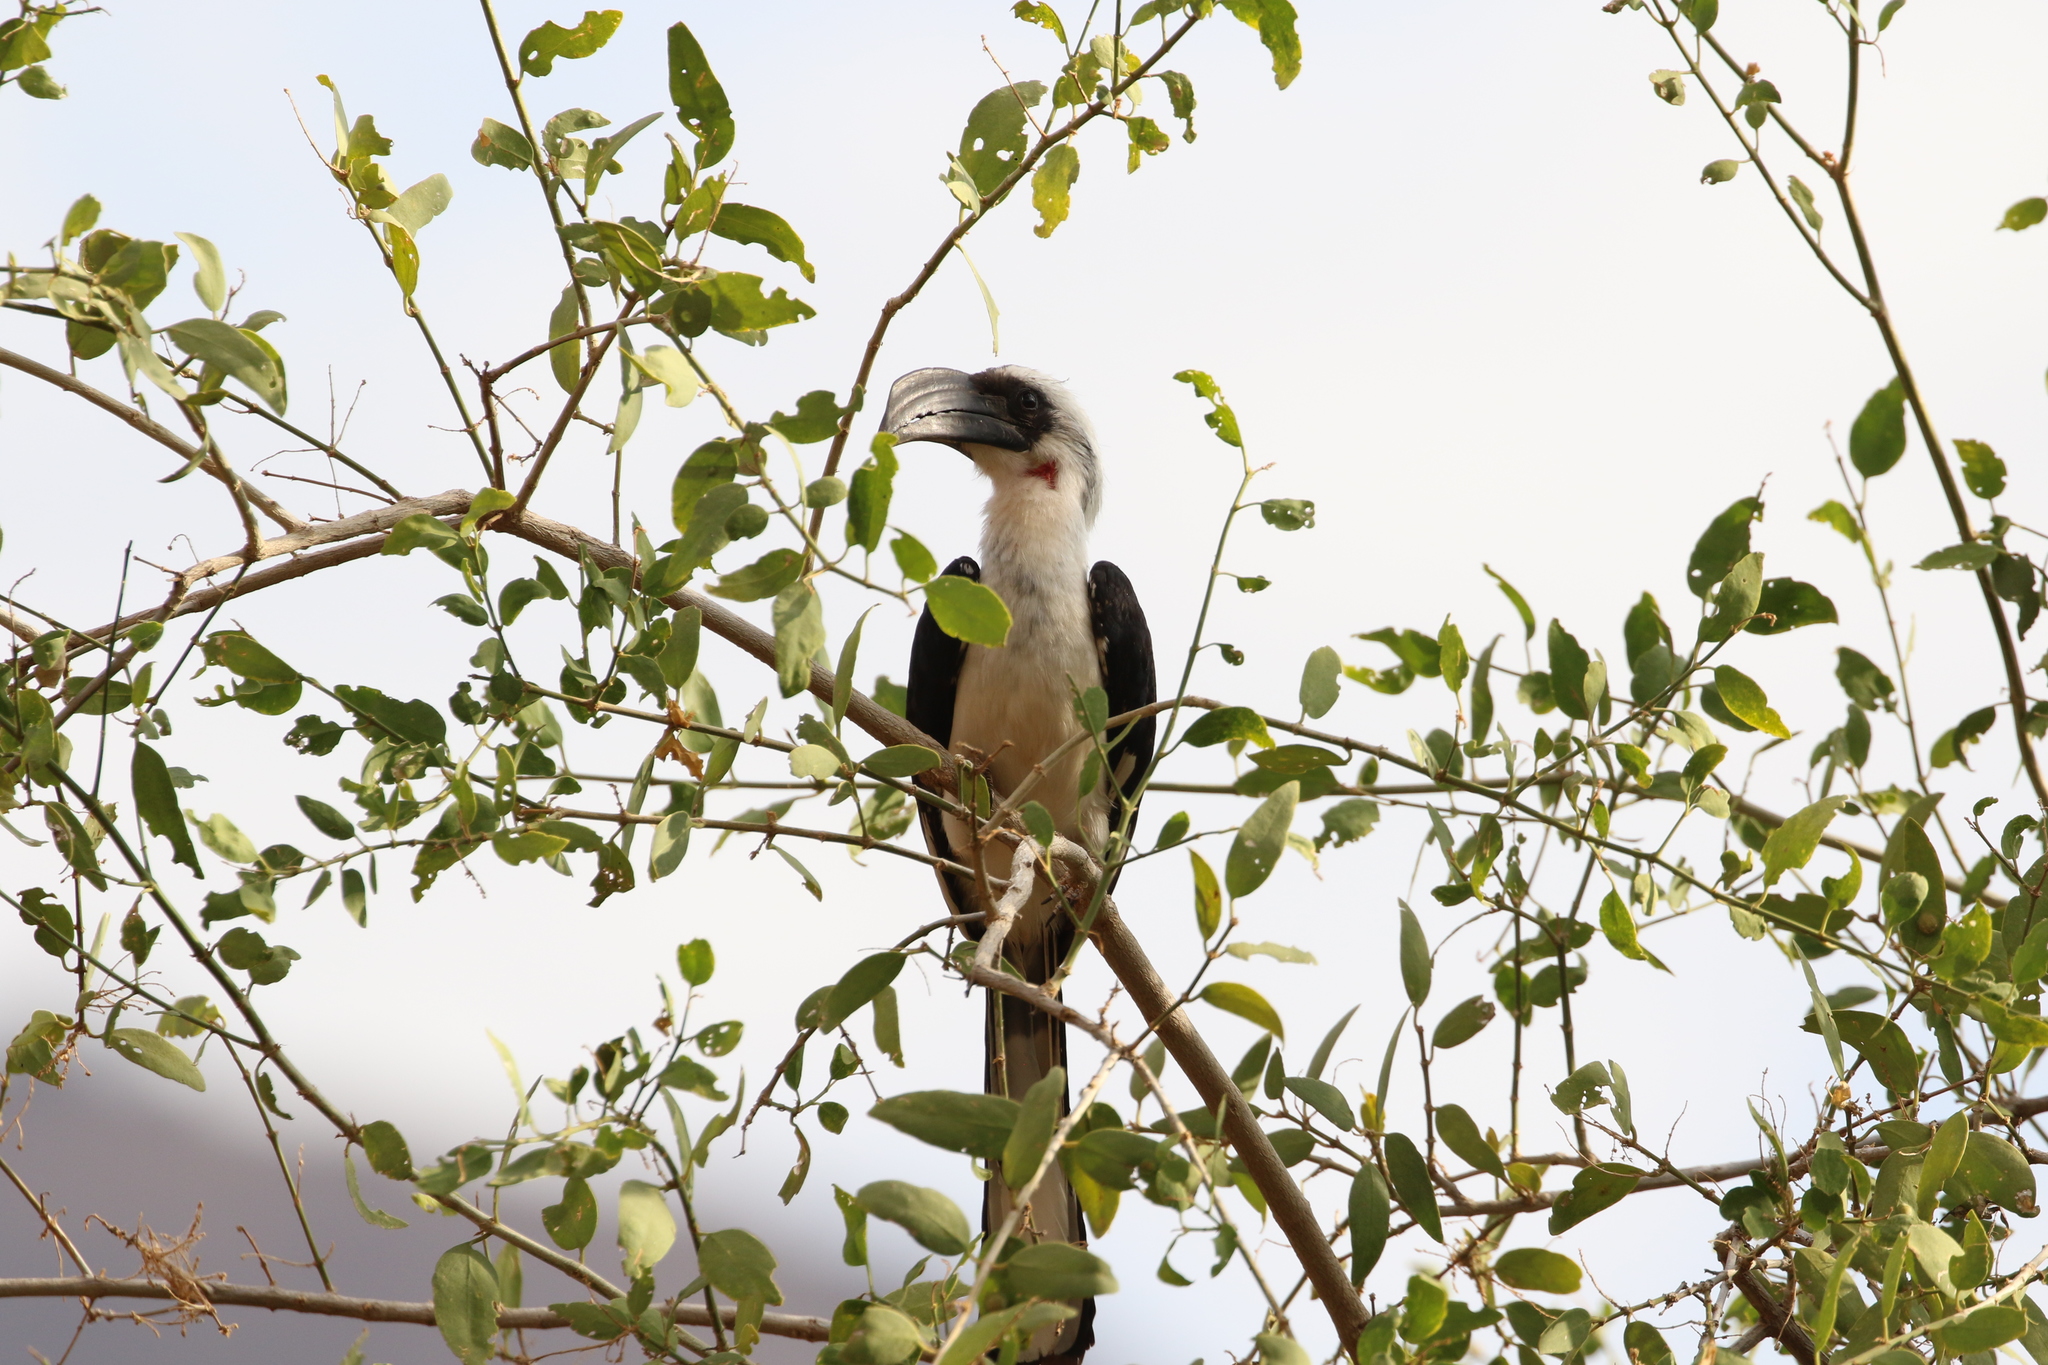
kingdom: Animalia
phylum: Chordata
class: Aves
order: Bucerotiformes
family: Bucerotidae
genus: Tockus
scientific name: Tockus deckeni
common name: Von der decken's hornbill
